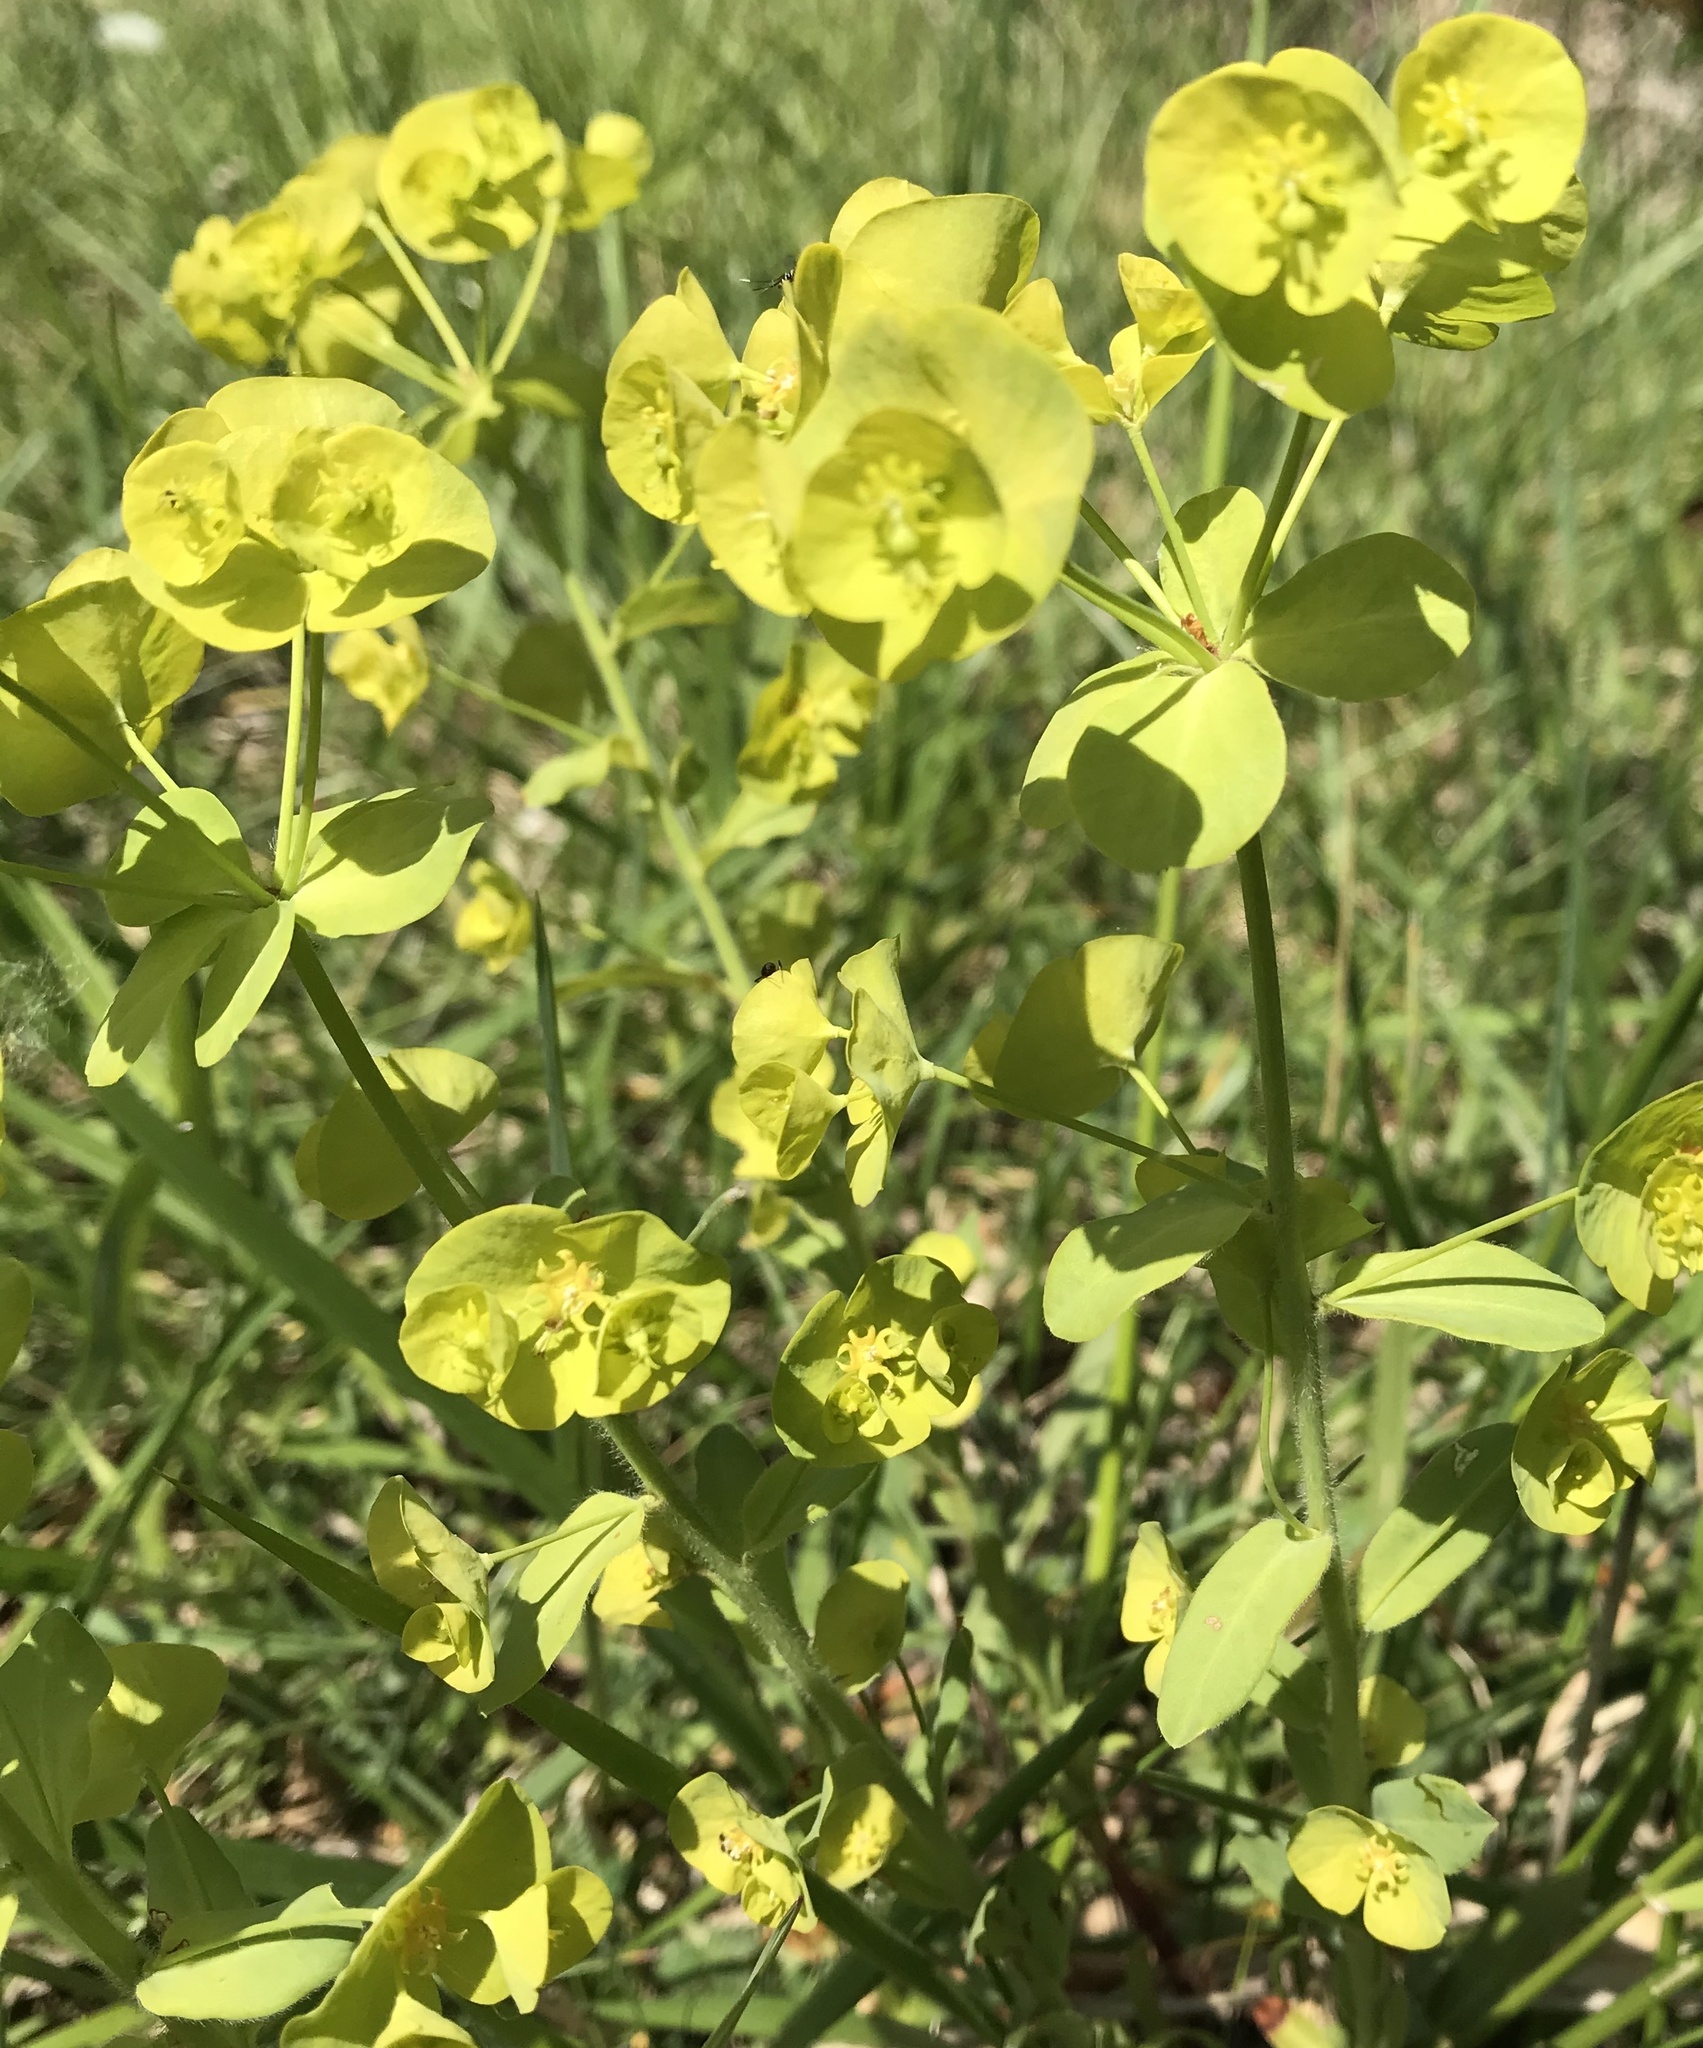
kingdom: Plantae
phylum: Tracheophyta
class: Magnoliopsida
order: Malpighiales
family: Euphorbiaceae
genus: Euphorbia
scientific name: Euphorbia amygdaloides
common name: Wood spurge
